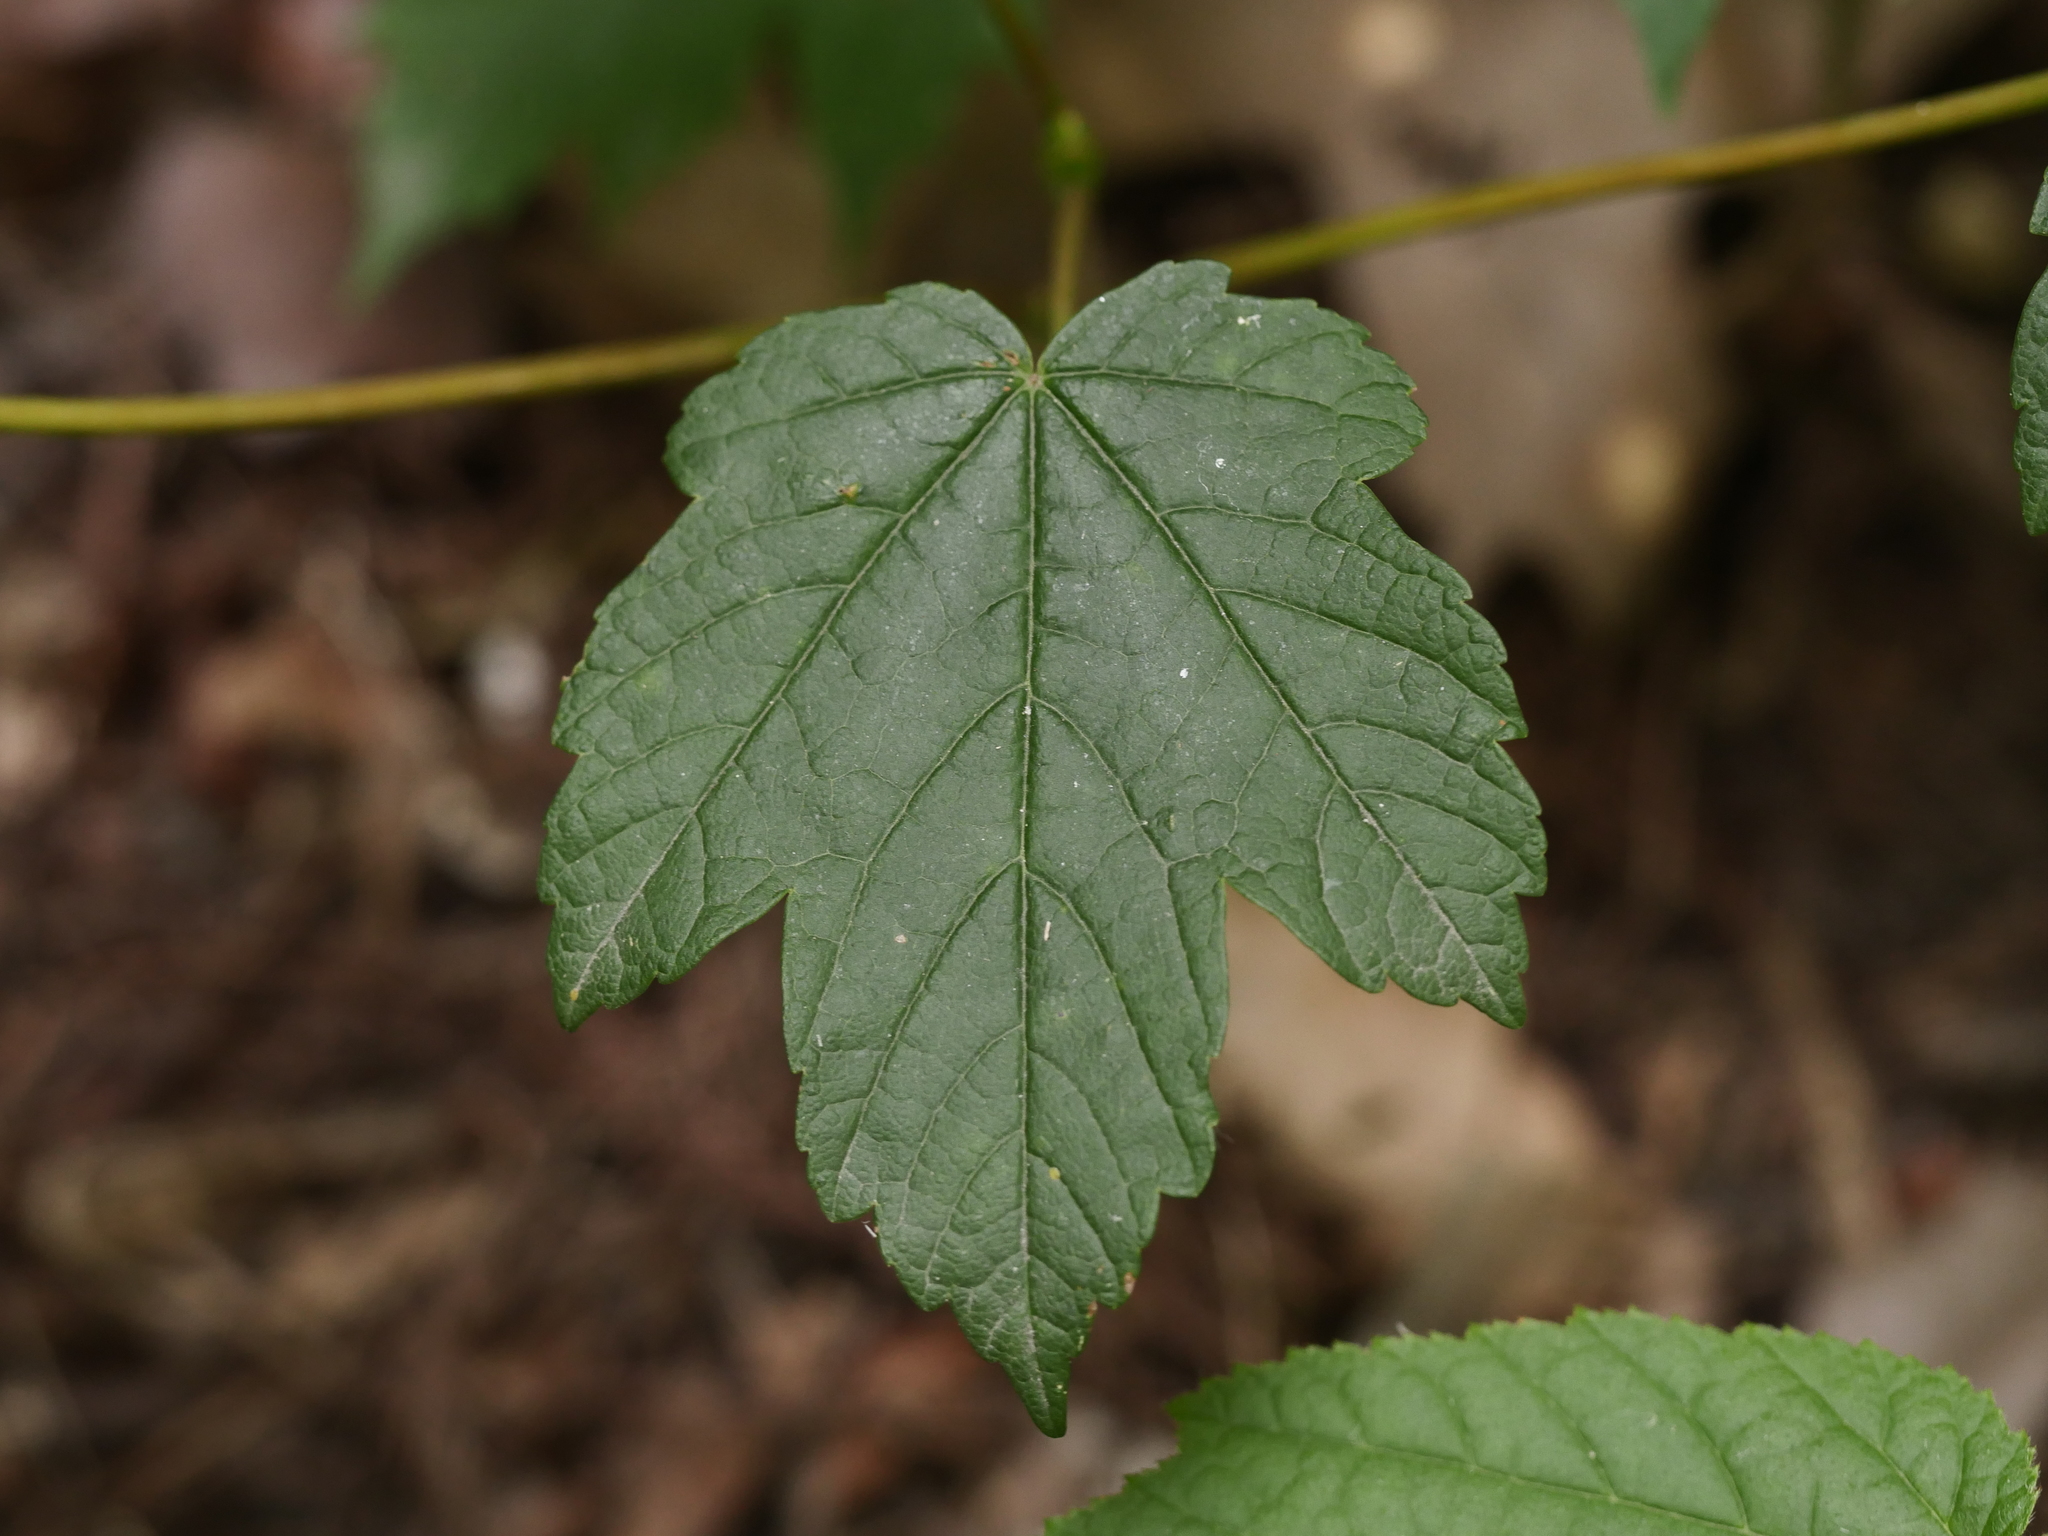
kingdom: Plantae
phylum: Tracheophyta
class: Magnoliopsida
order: Sapindales
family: Sapindaceae
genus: Acer
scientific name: Acer pseudoplatanus
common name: Sycamore
